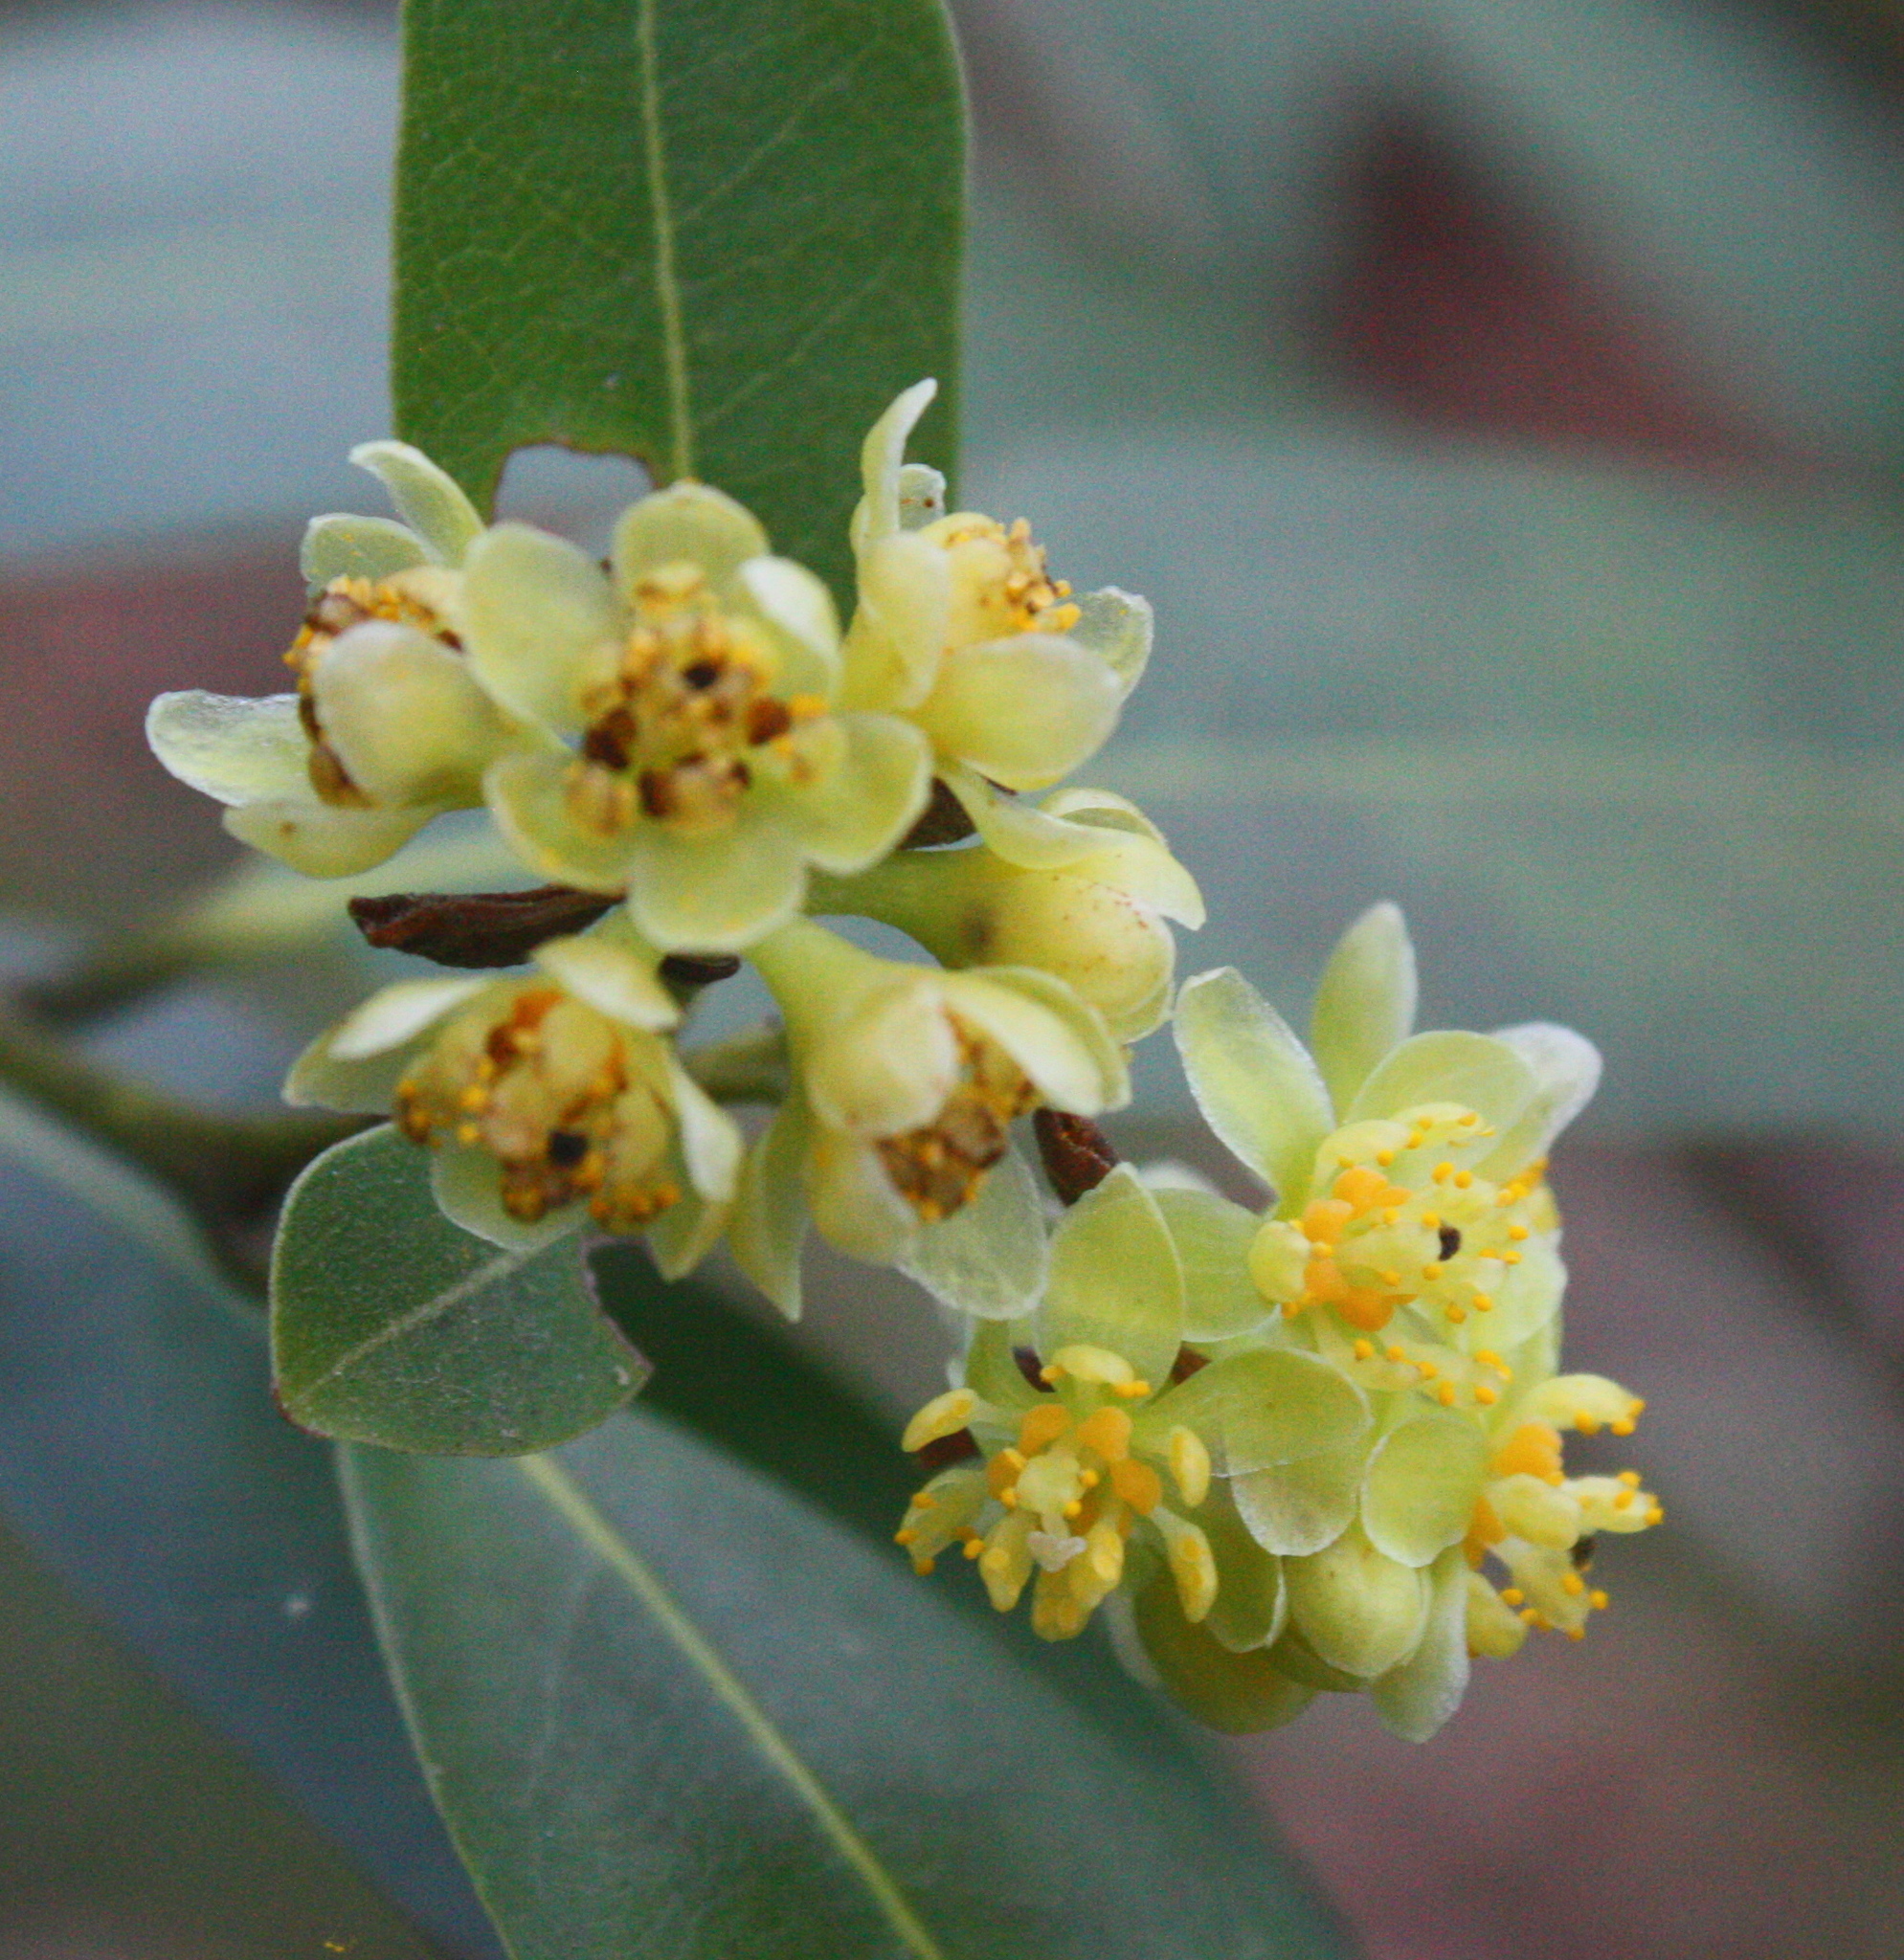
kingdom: Plantae
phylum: Tracheophyta
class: Magnoliopsida
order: Laurales
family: Lauraceae
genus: Umbellularia
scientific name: Umbellularia californica
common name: California bay
